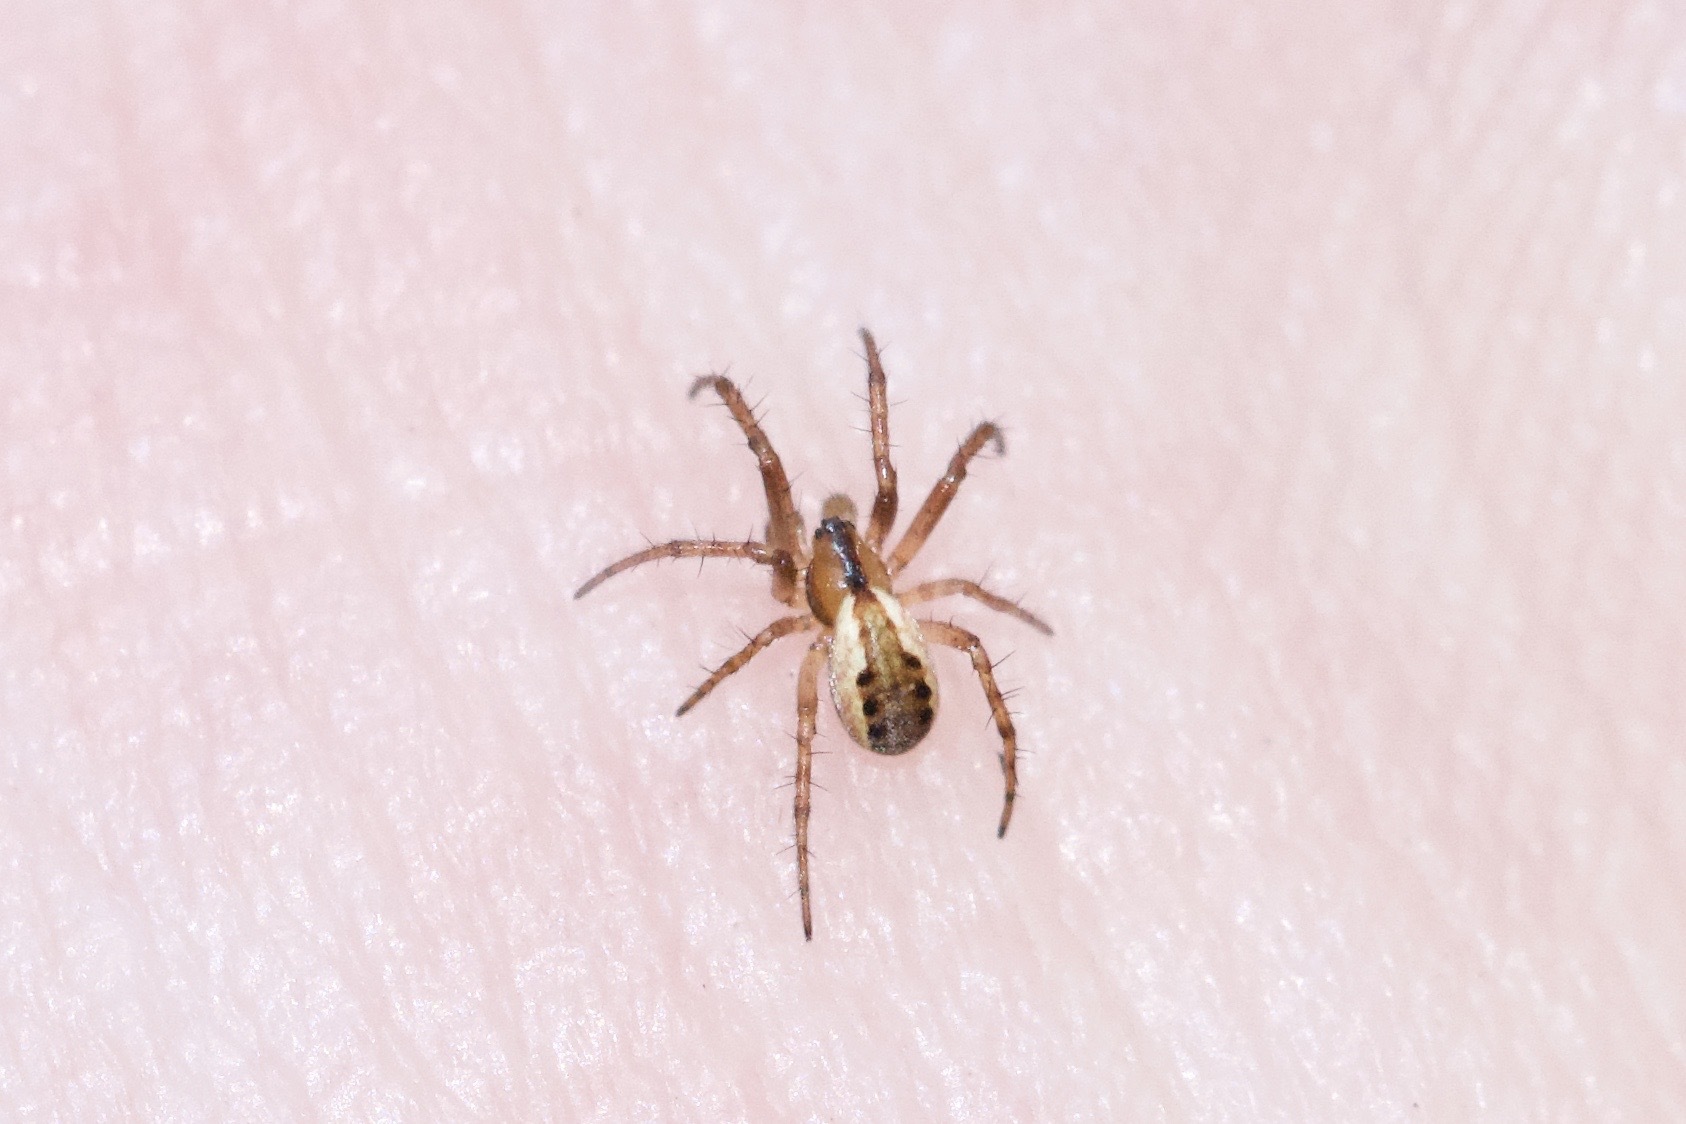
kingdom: Animalia
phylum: Arthropoda
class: Arachnida
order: Araneae
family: Araneidae
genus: Mangora
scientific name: Mangora placida
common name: Tuft-legged orbweaver
